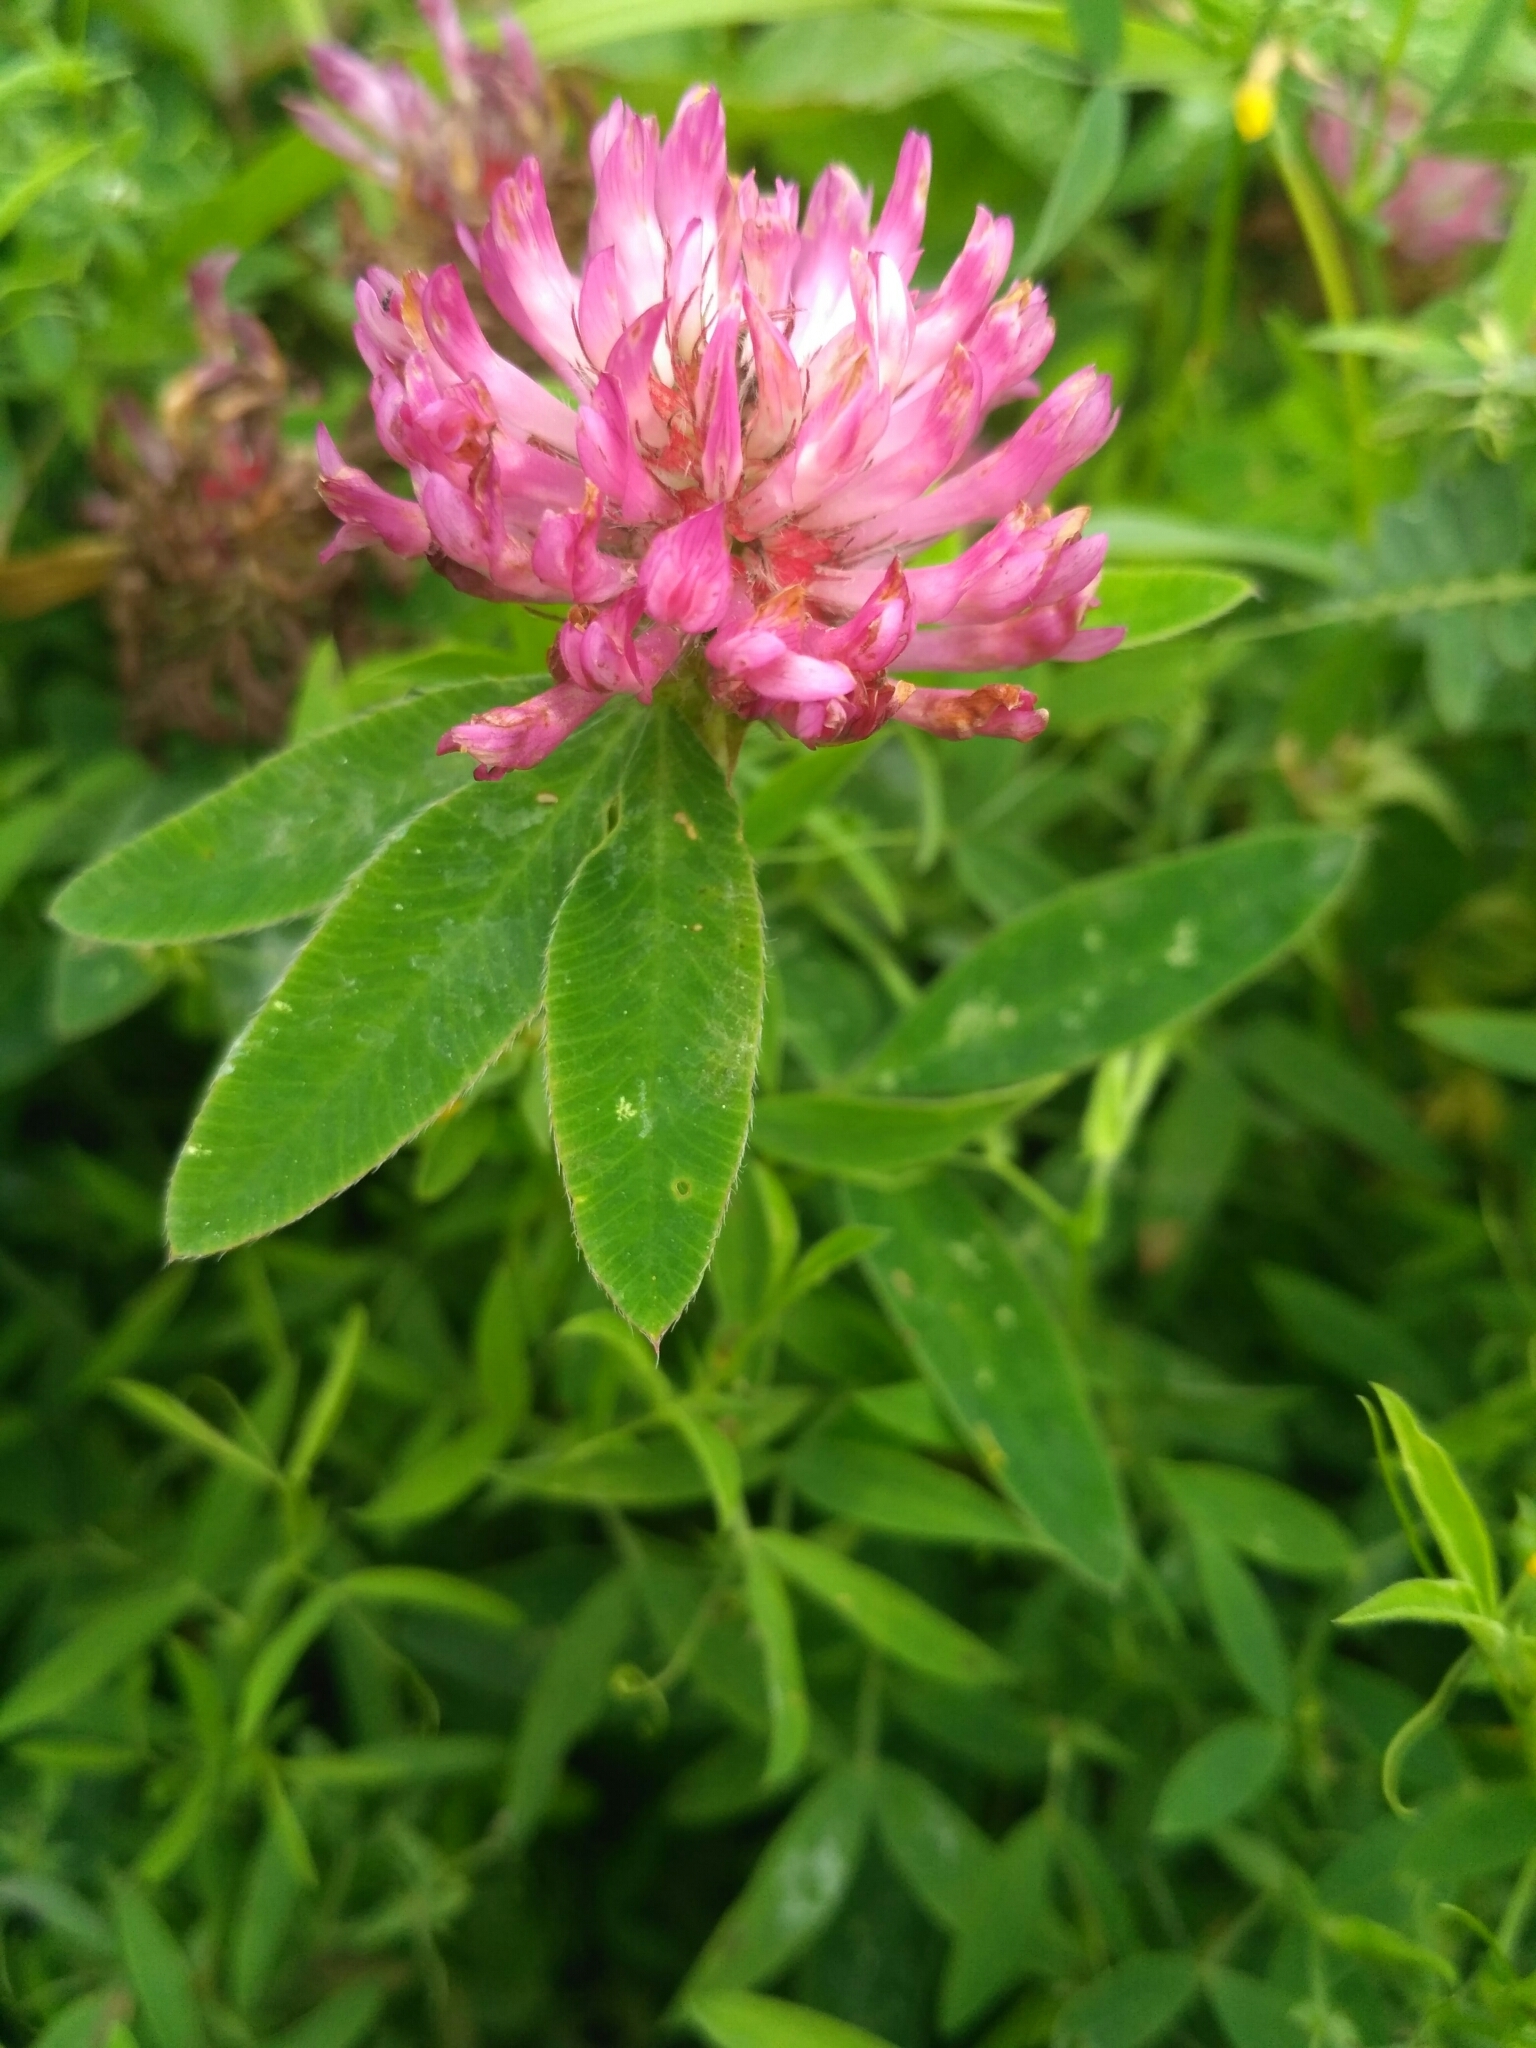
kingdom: Plantae
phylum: Tracheophyta
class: Magnoliopsida
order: Fabales
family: Fabaceae
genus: Trifolium
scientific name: Trifolium medium
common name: Zigzag clover
